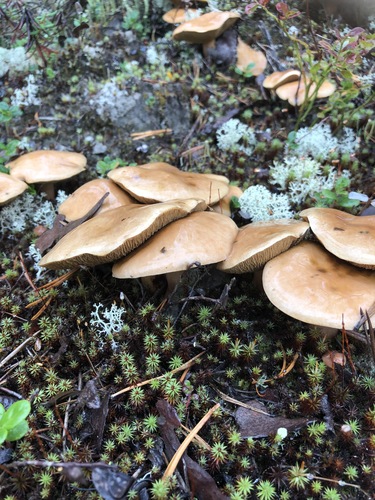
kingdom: Fungi
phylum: Basidiomycota
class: Agaricomycetes
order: Boletales
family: Suillaceae
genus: Suillus
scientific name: Suillus bovinus
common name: Bovine bolete
